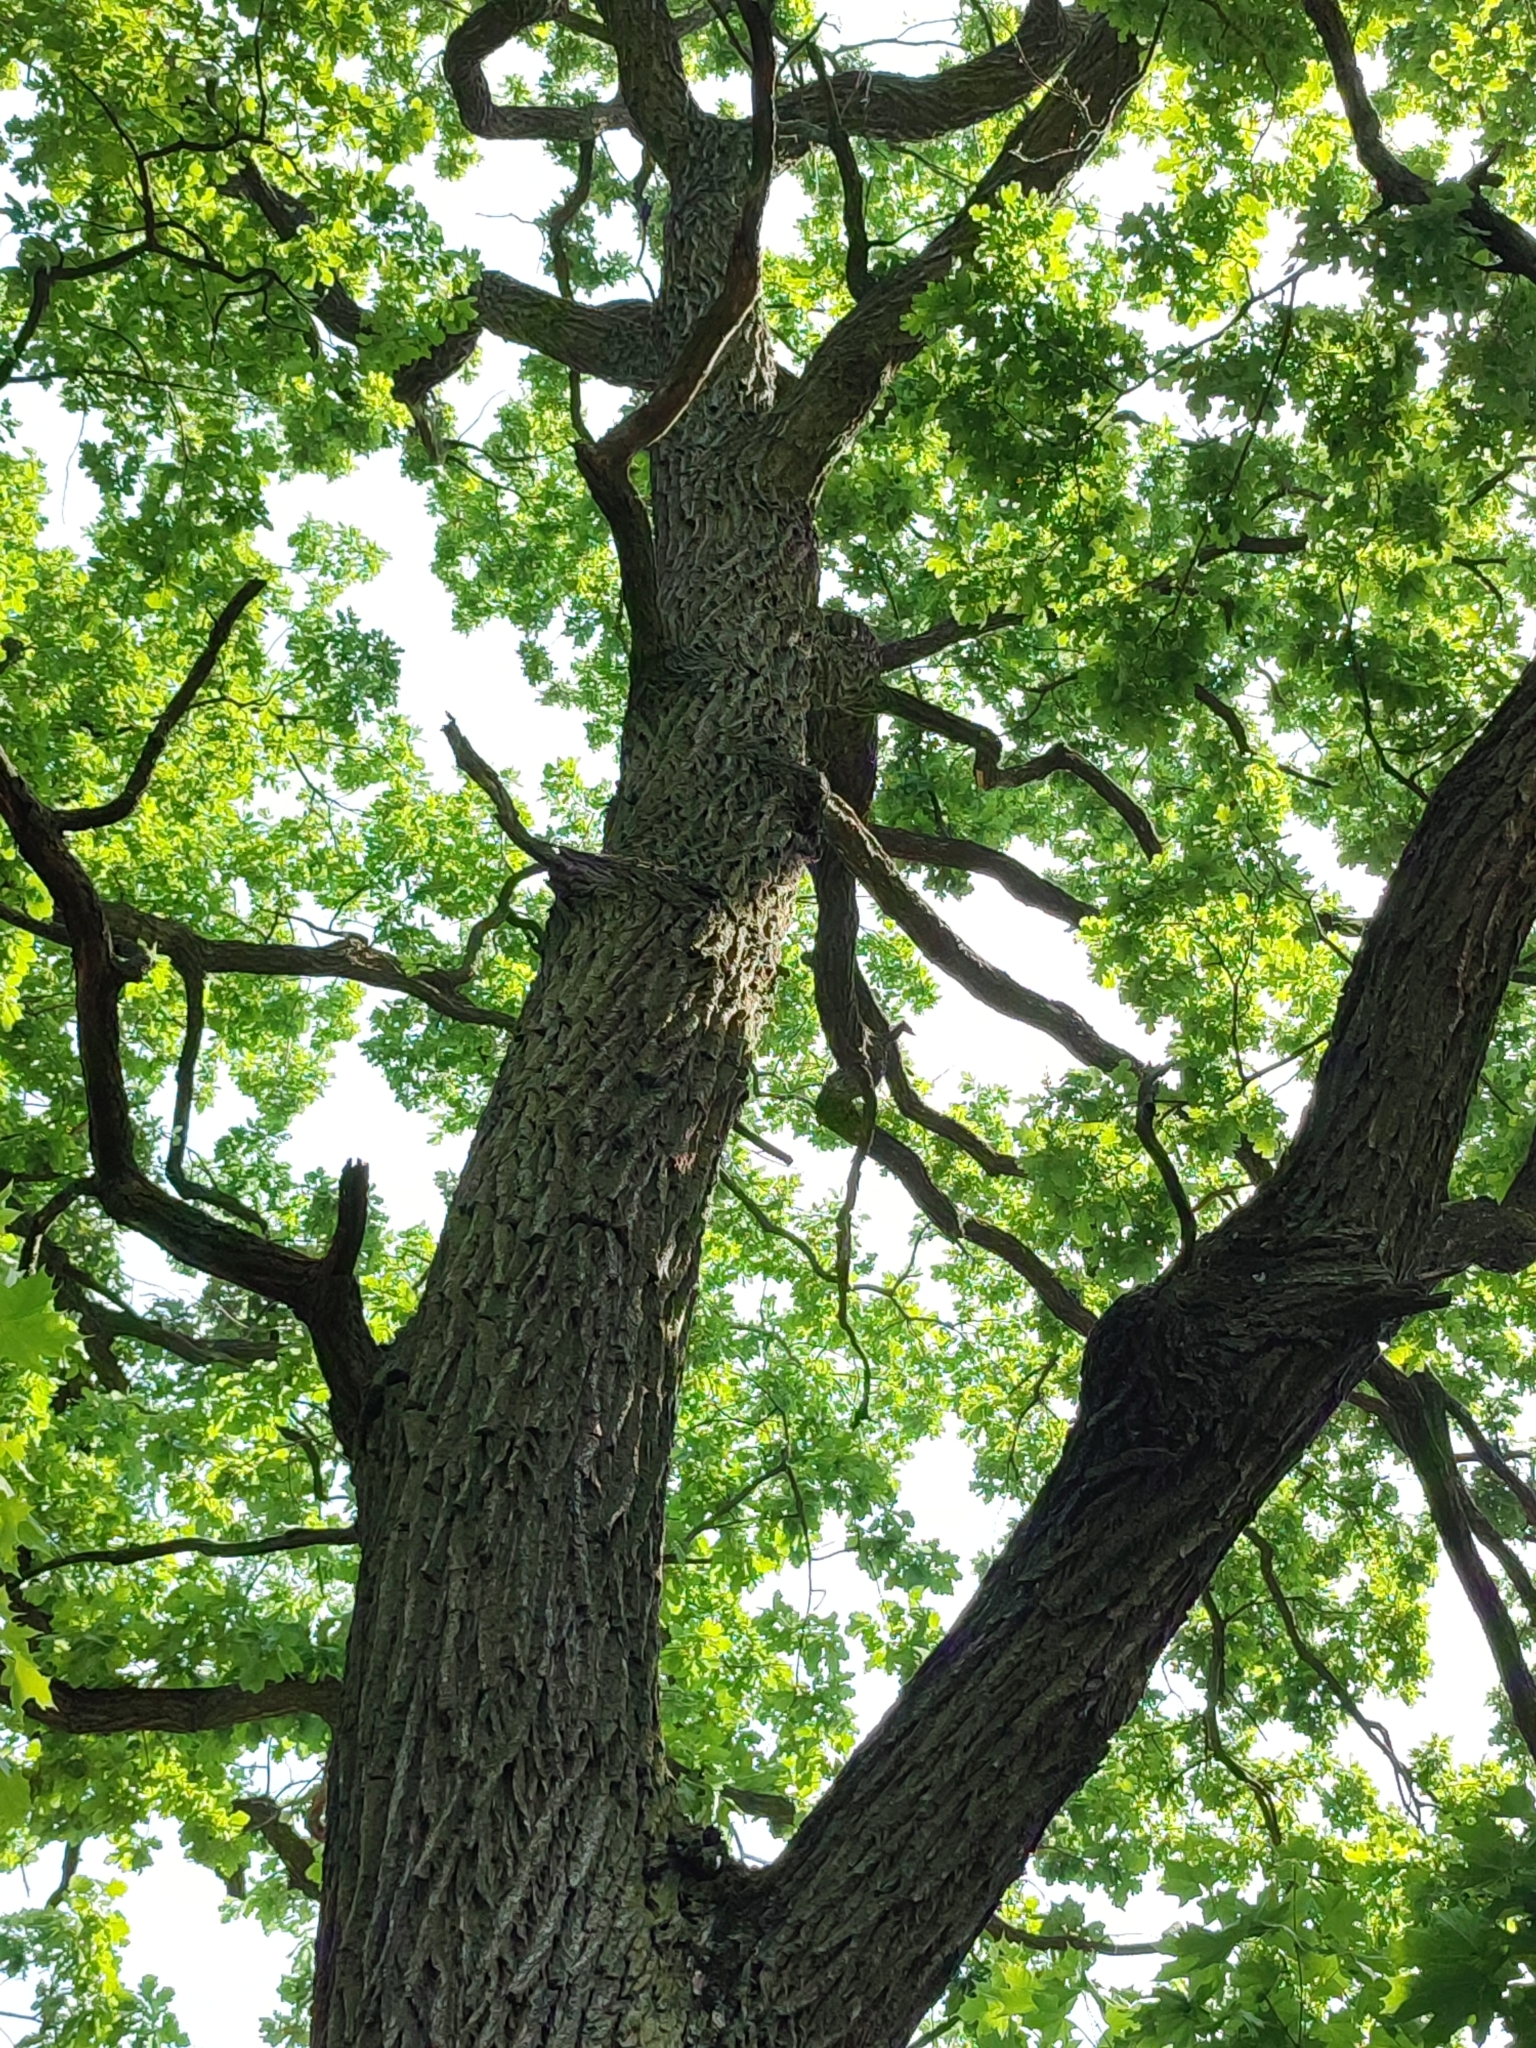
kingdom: Plantae
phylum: Tracheophyta
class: Magnoliopsida
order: Fagales
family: Fagaceae
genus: Quercus
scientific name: Quercus robur
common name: Pedunculate oak
